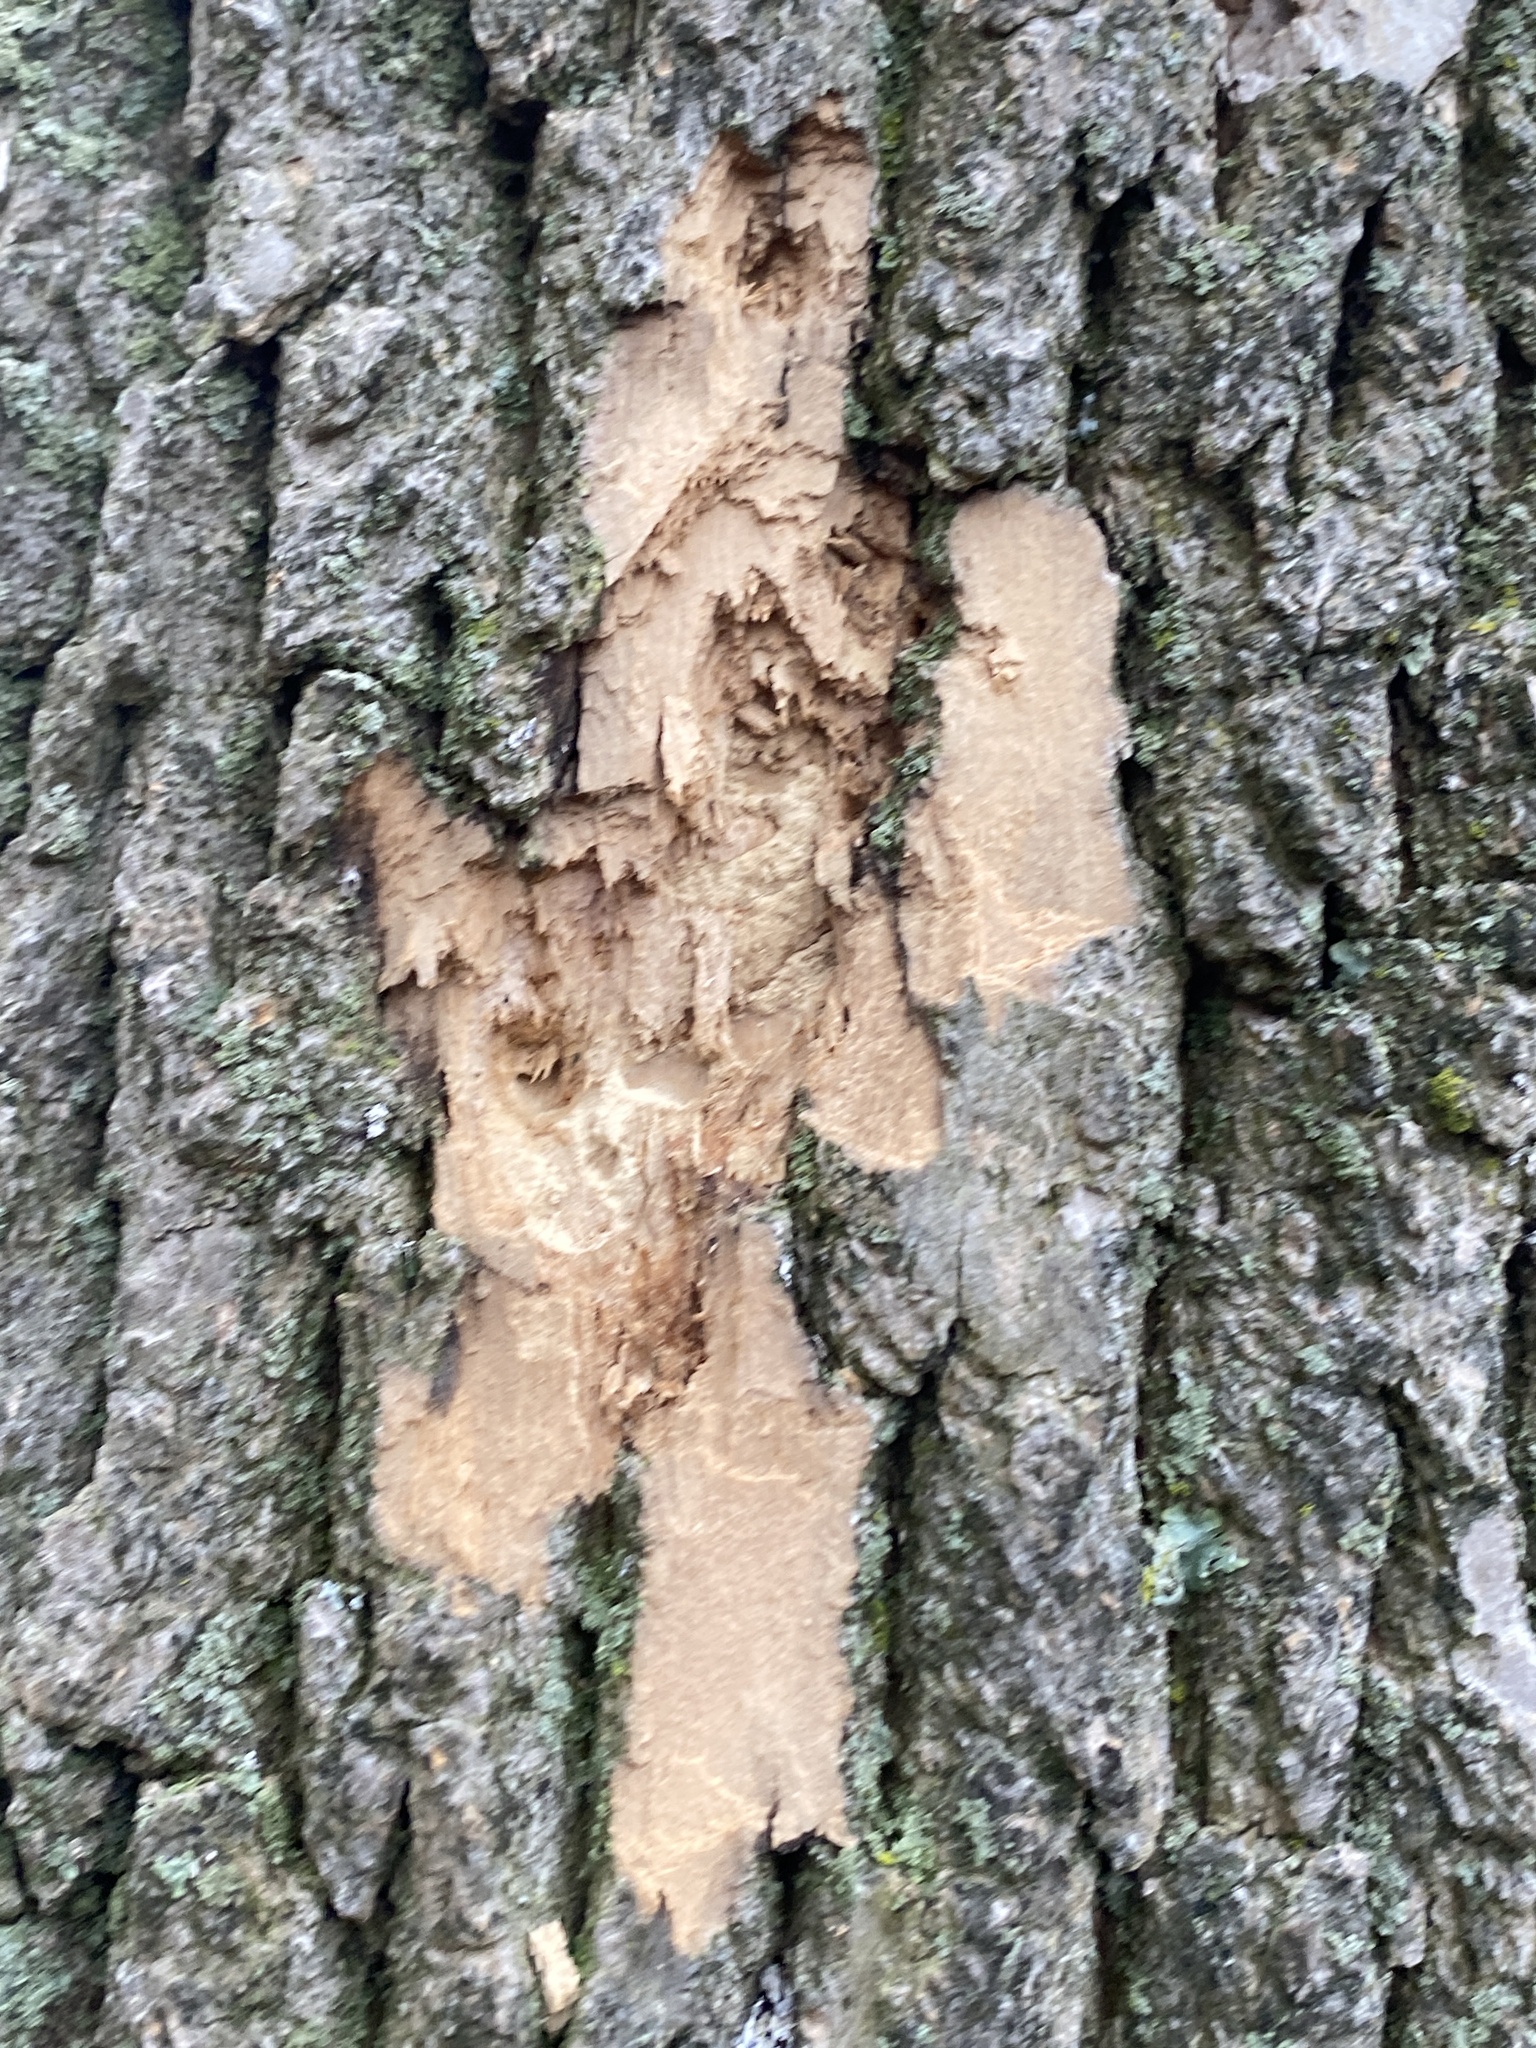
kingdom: Animalia
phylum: Arthropoda
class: Insecta
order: Coleoptera
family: Buprestidae
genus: Agrilus
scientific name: Agrilus planipennis
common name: Emerald ash borer
